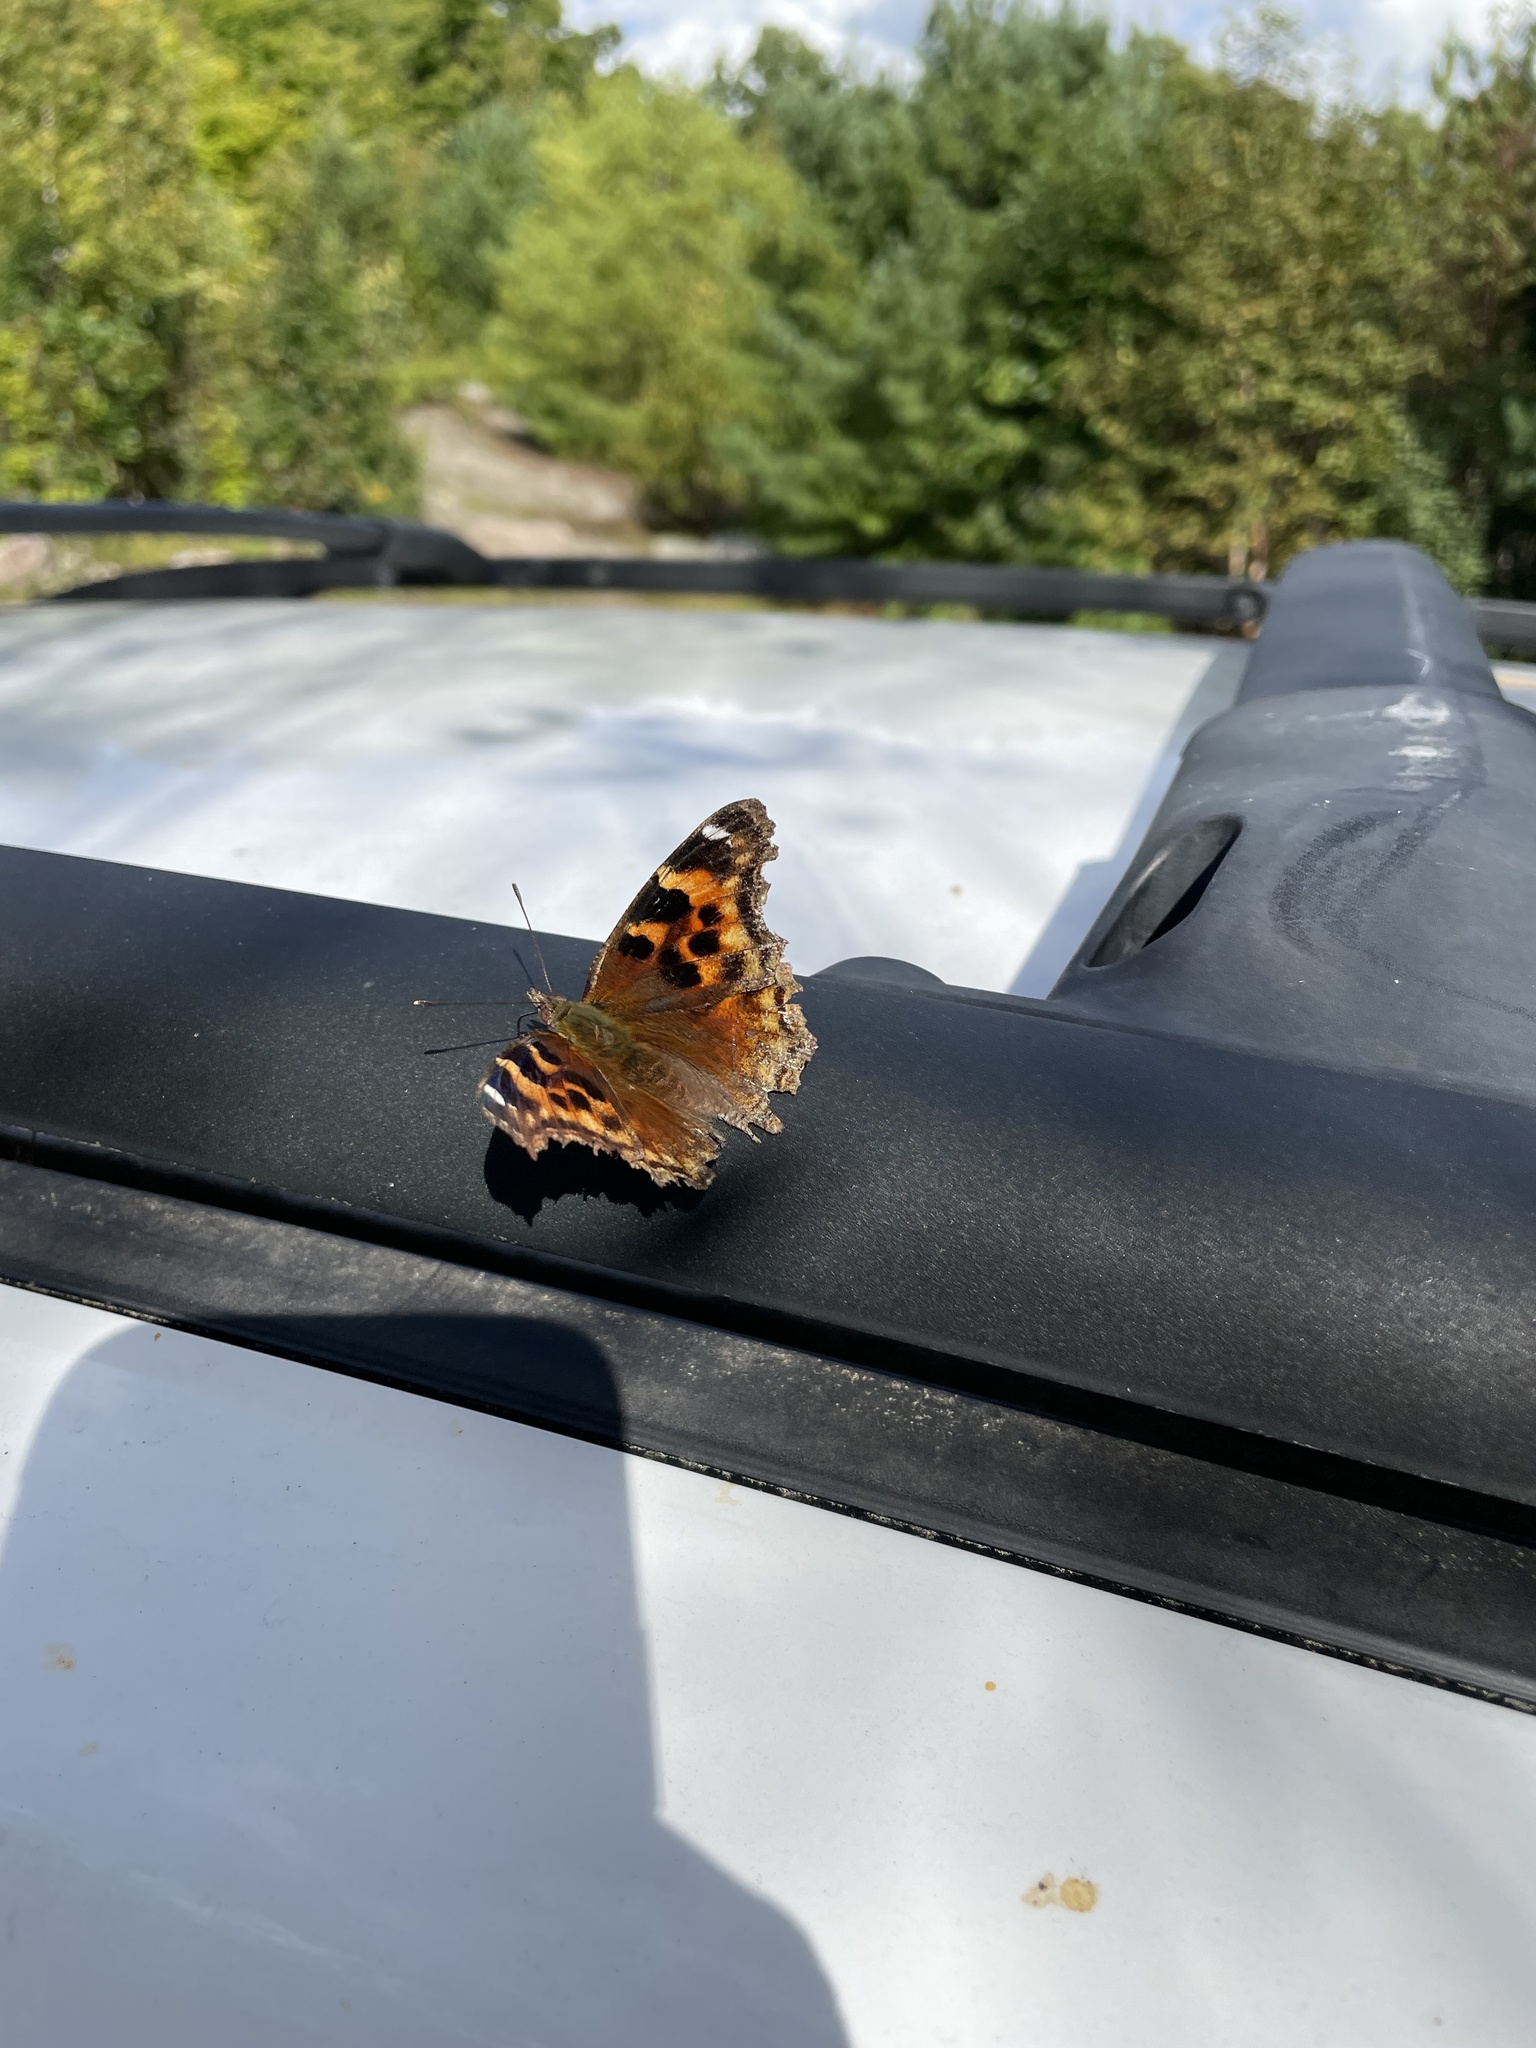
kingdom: Animalia
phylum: Arthropoda
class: Insecta
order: Lepidoptera
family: Nymphalidae
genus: Polygonia
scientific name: Polygonia vaualbum
